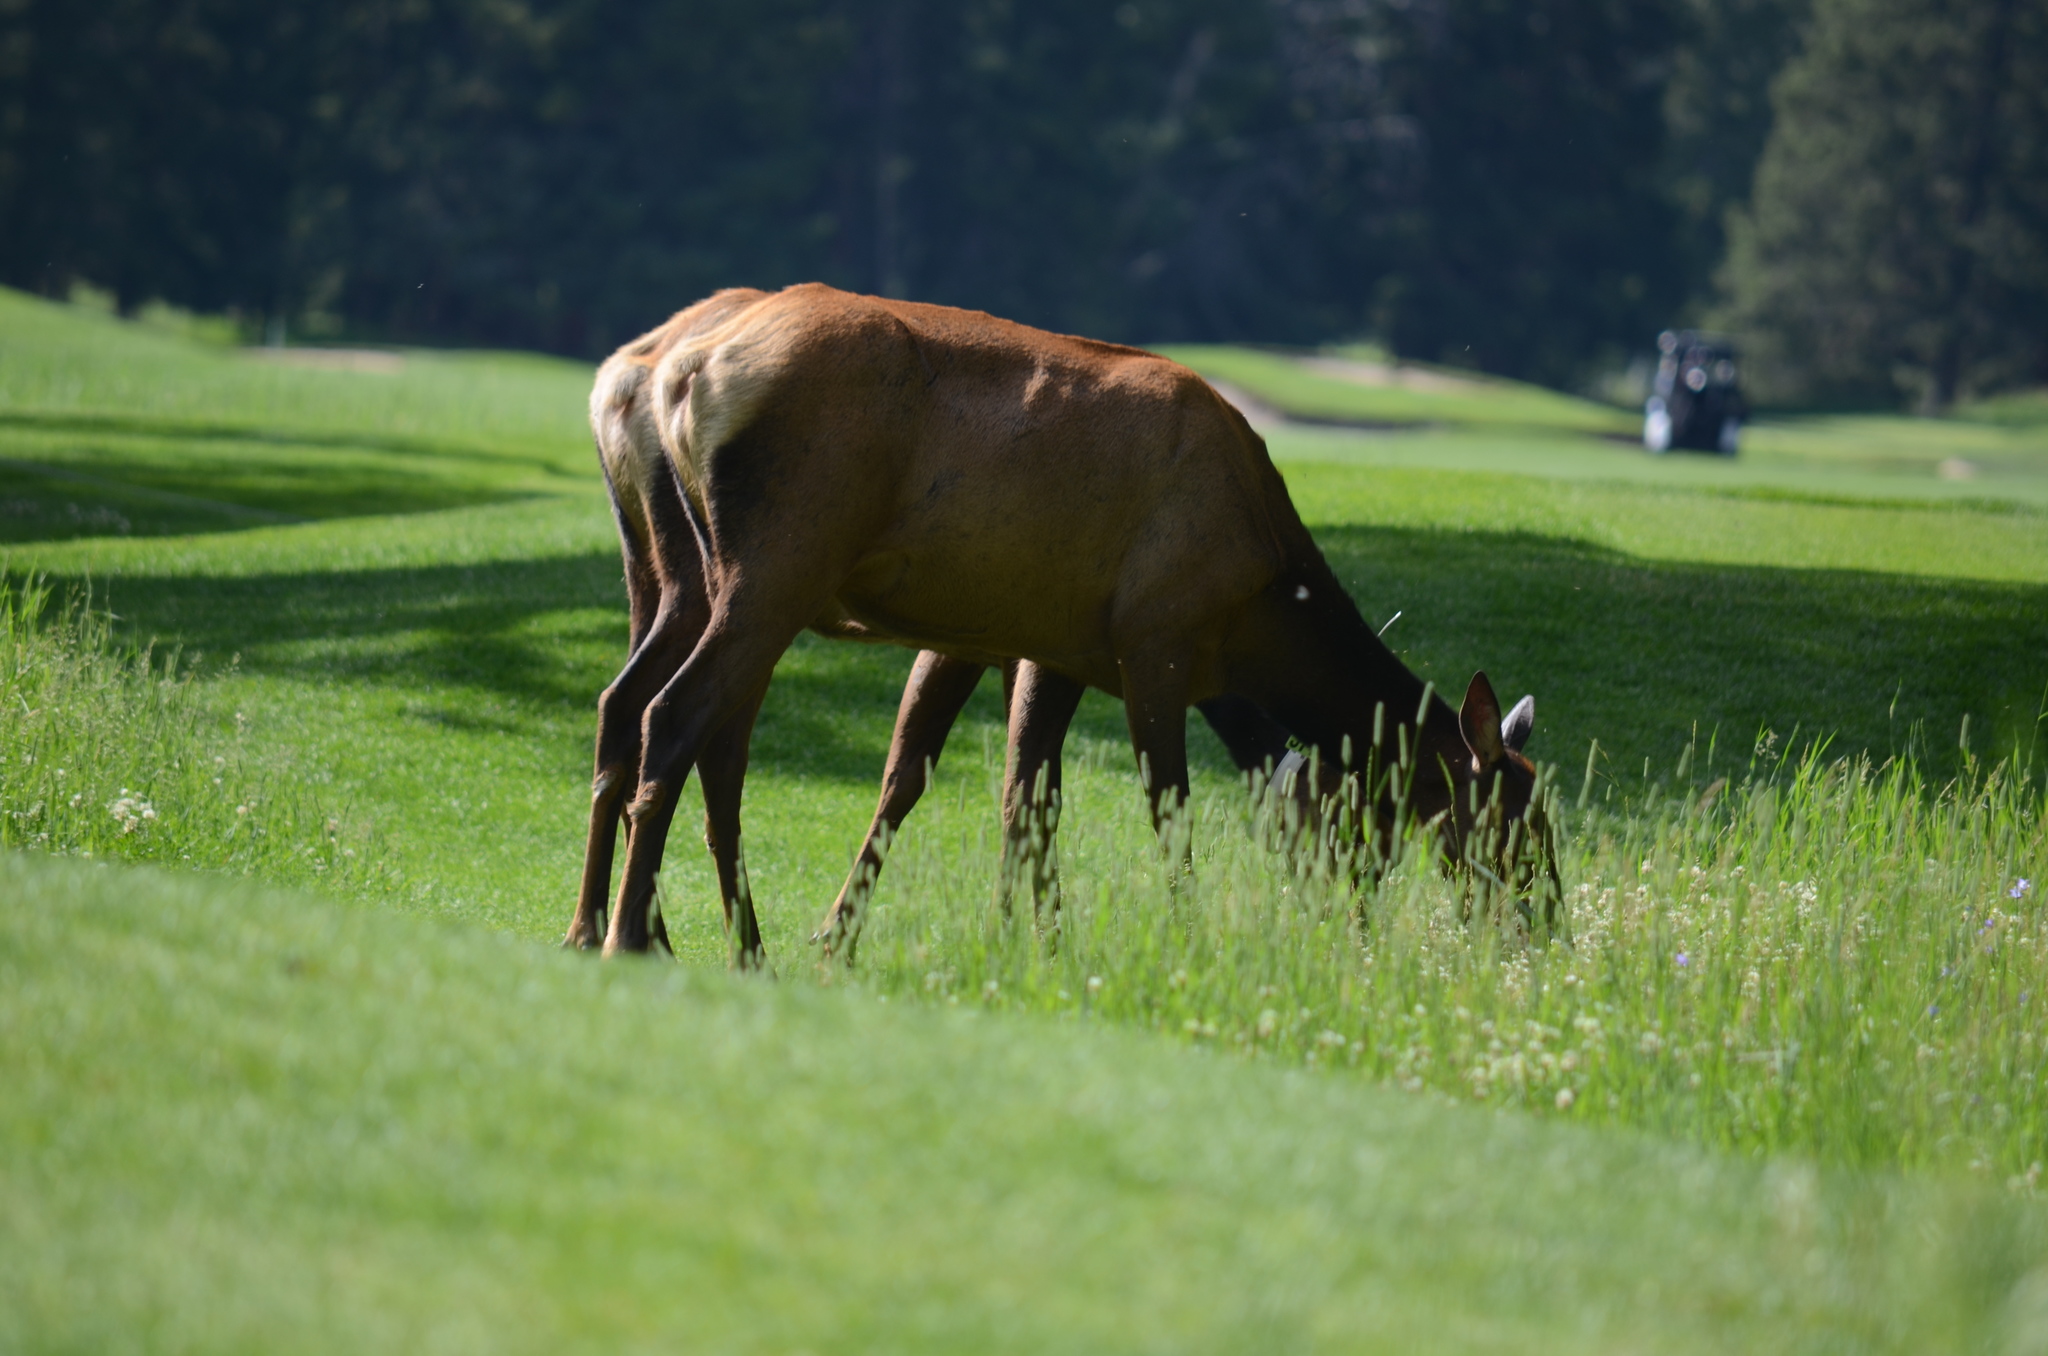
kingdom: Animalia
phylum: Chordata
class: Mammalia
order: Artiodactyla
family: Cervidae
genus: Cervus
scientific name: Cervus elaphus
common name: Red deer
